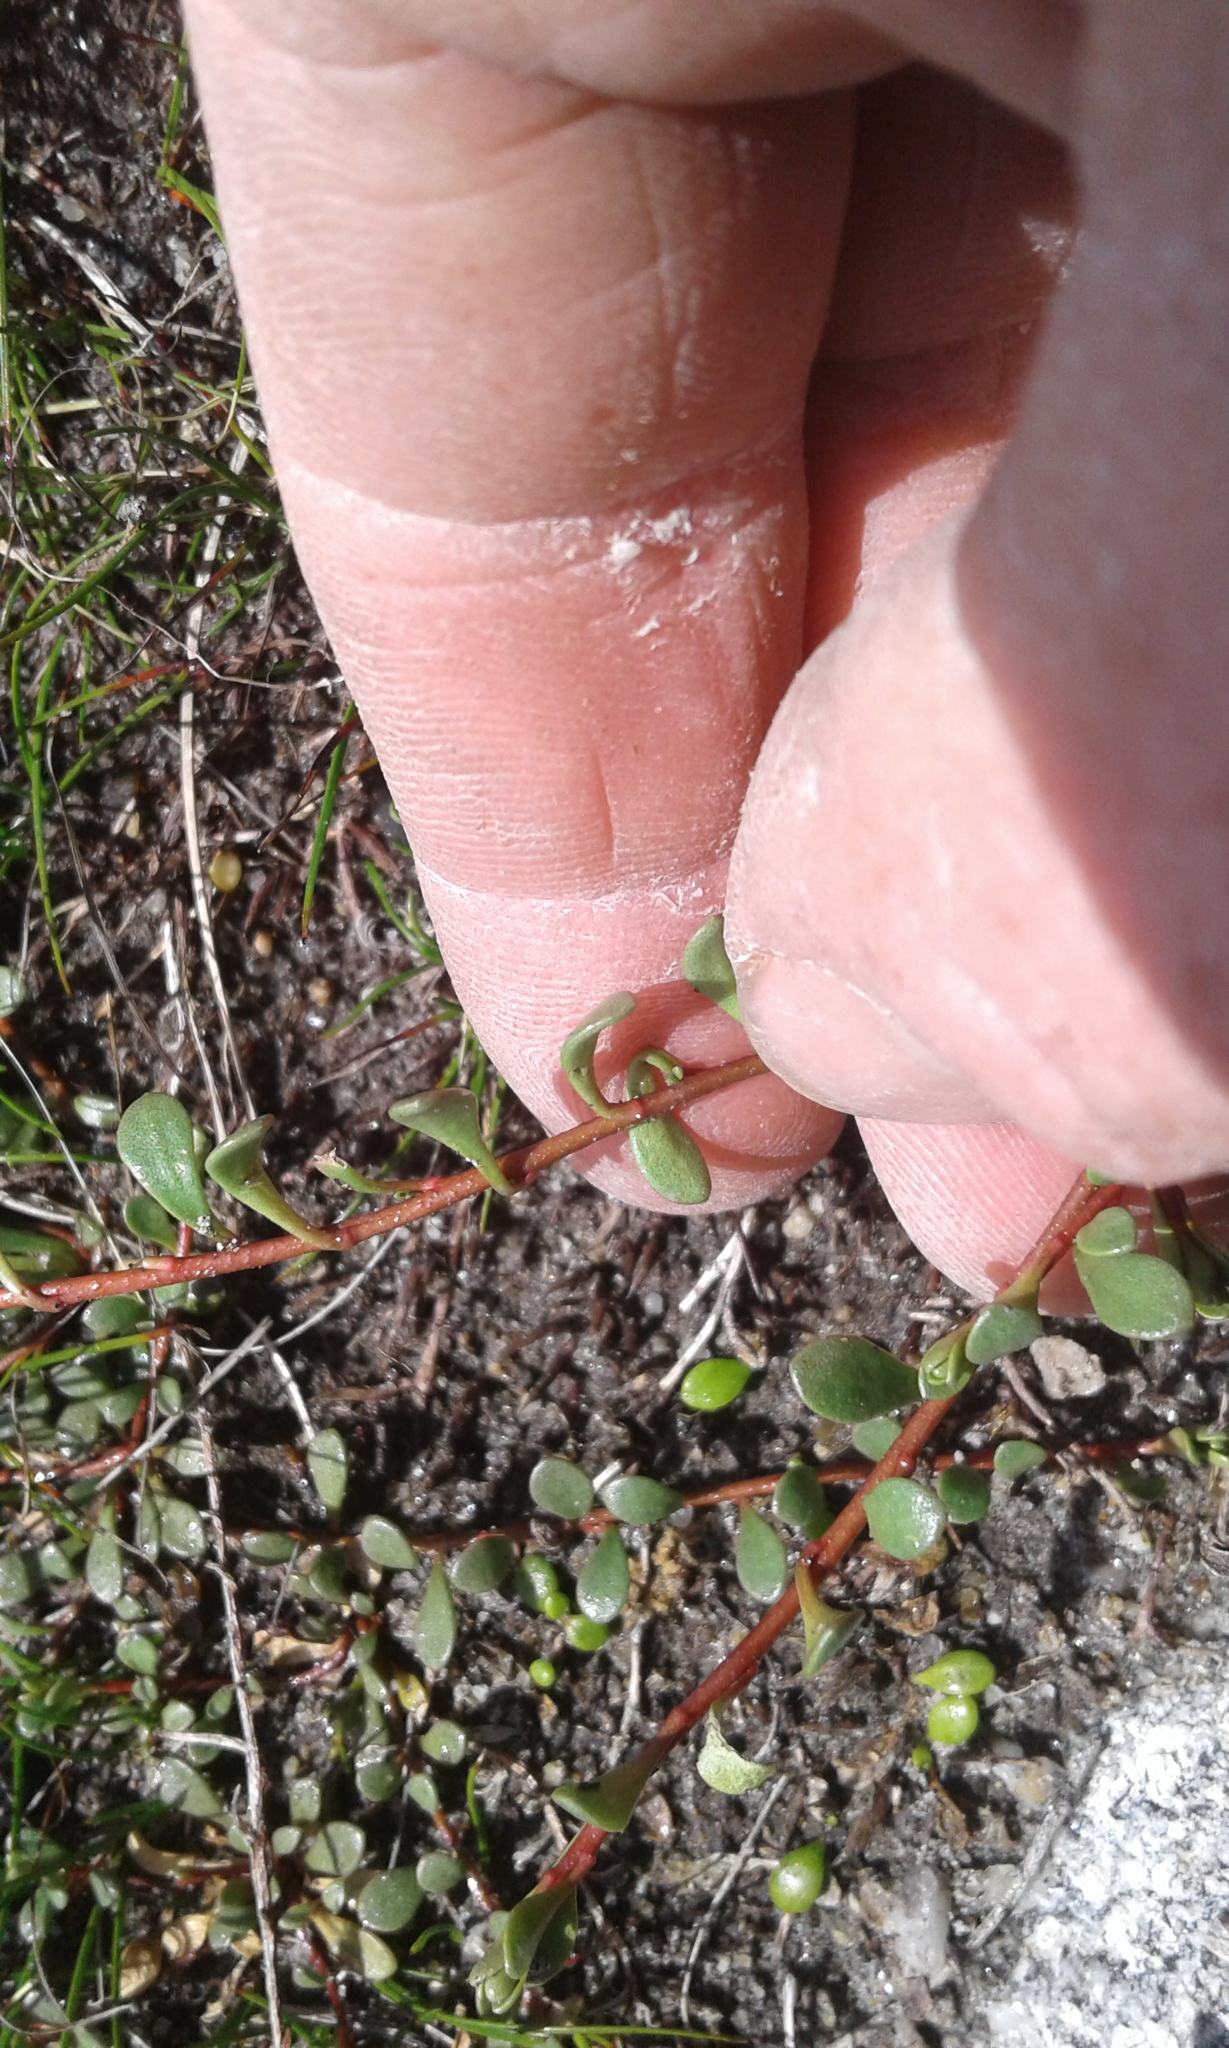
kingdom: Plantae
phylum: Tracheophyta
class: Magnoliopsida
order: Ericales
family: Primulaceae
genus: Samolus
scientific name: Samolus repens
